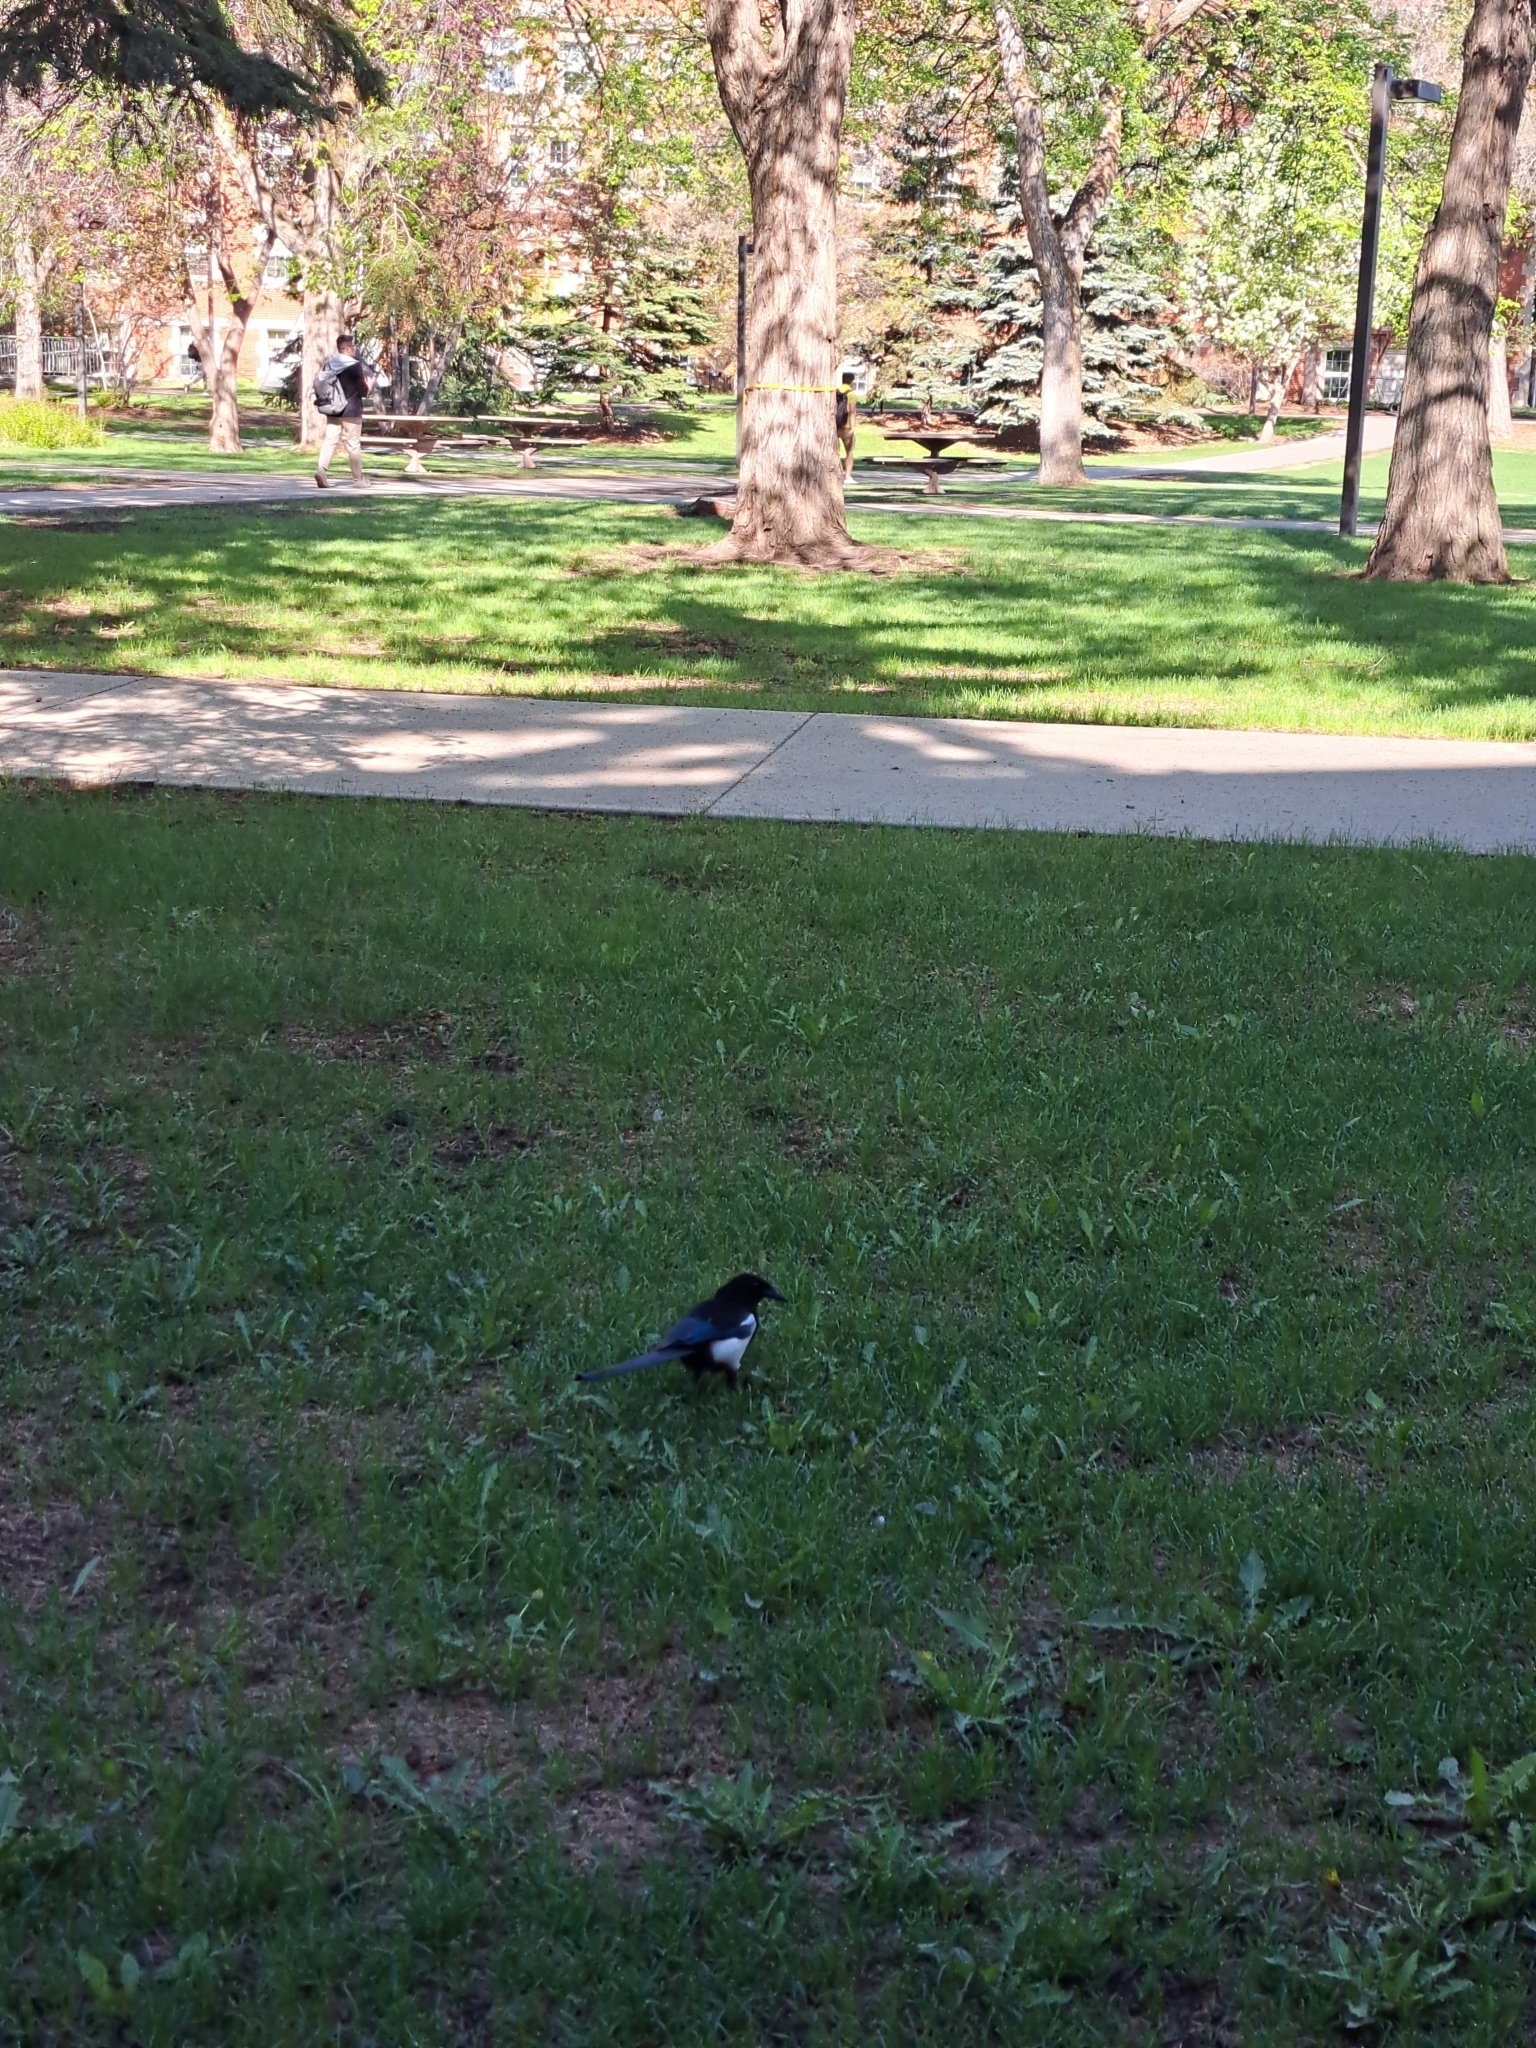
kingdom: Animalia
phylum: Chordata
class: Aves
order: Passeriformes
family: Corvidae
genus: Pica
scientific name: Pica hudsonia
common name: Black-billed magpie
